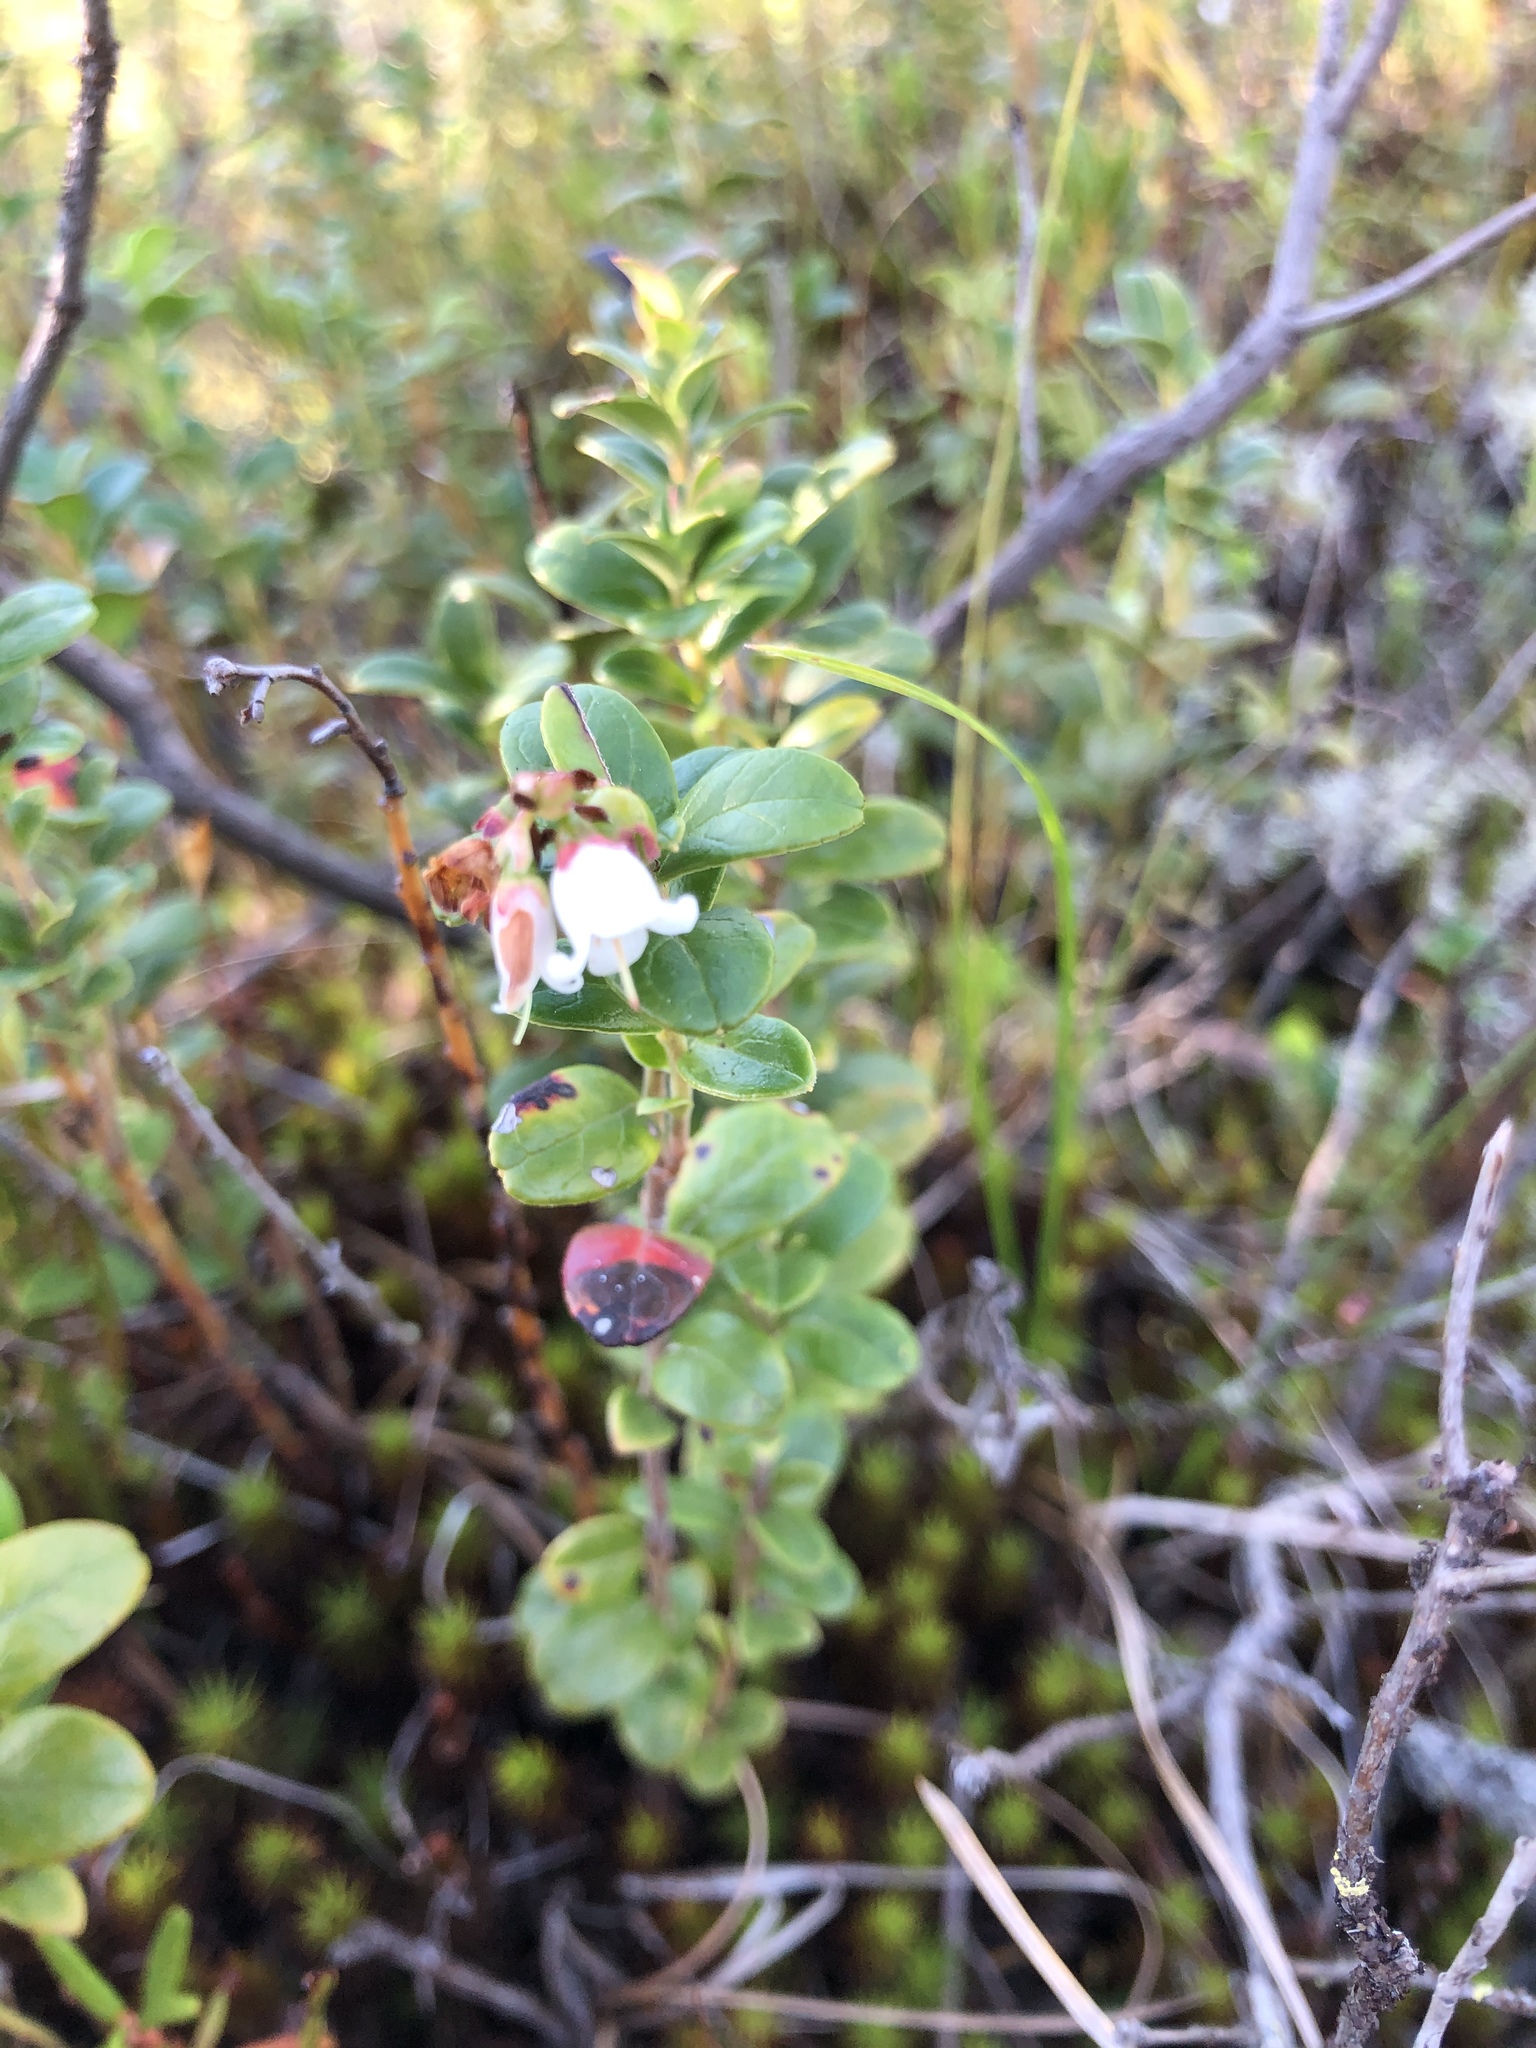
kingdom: Plantae
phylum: Tracheophyta
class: Magnoliopsida
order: Ericales
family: Ericaceae
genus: Vaccinium
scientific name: Vaccinium vitis-idaea
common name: Cowberry
